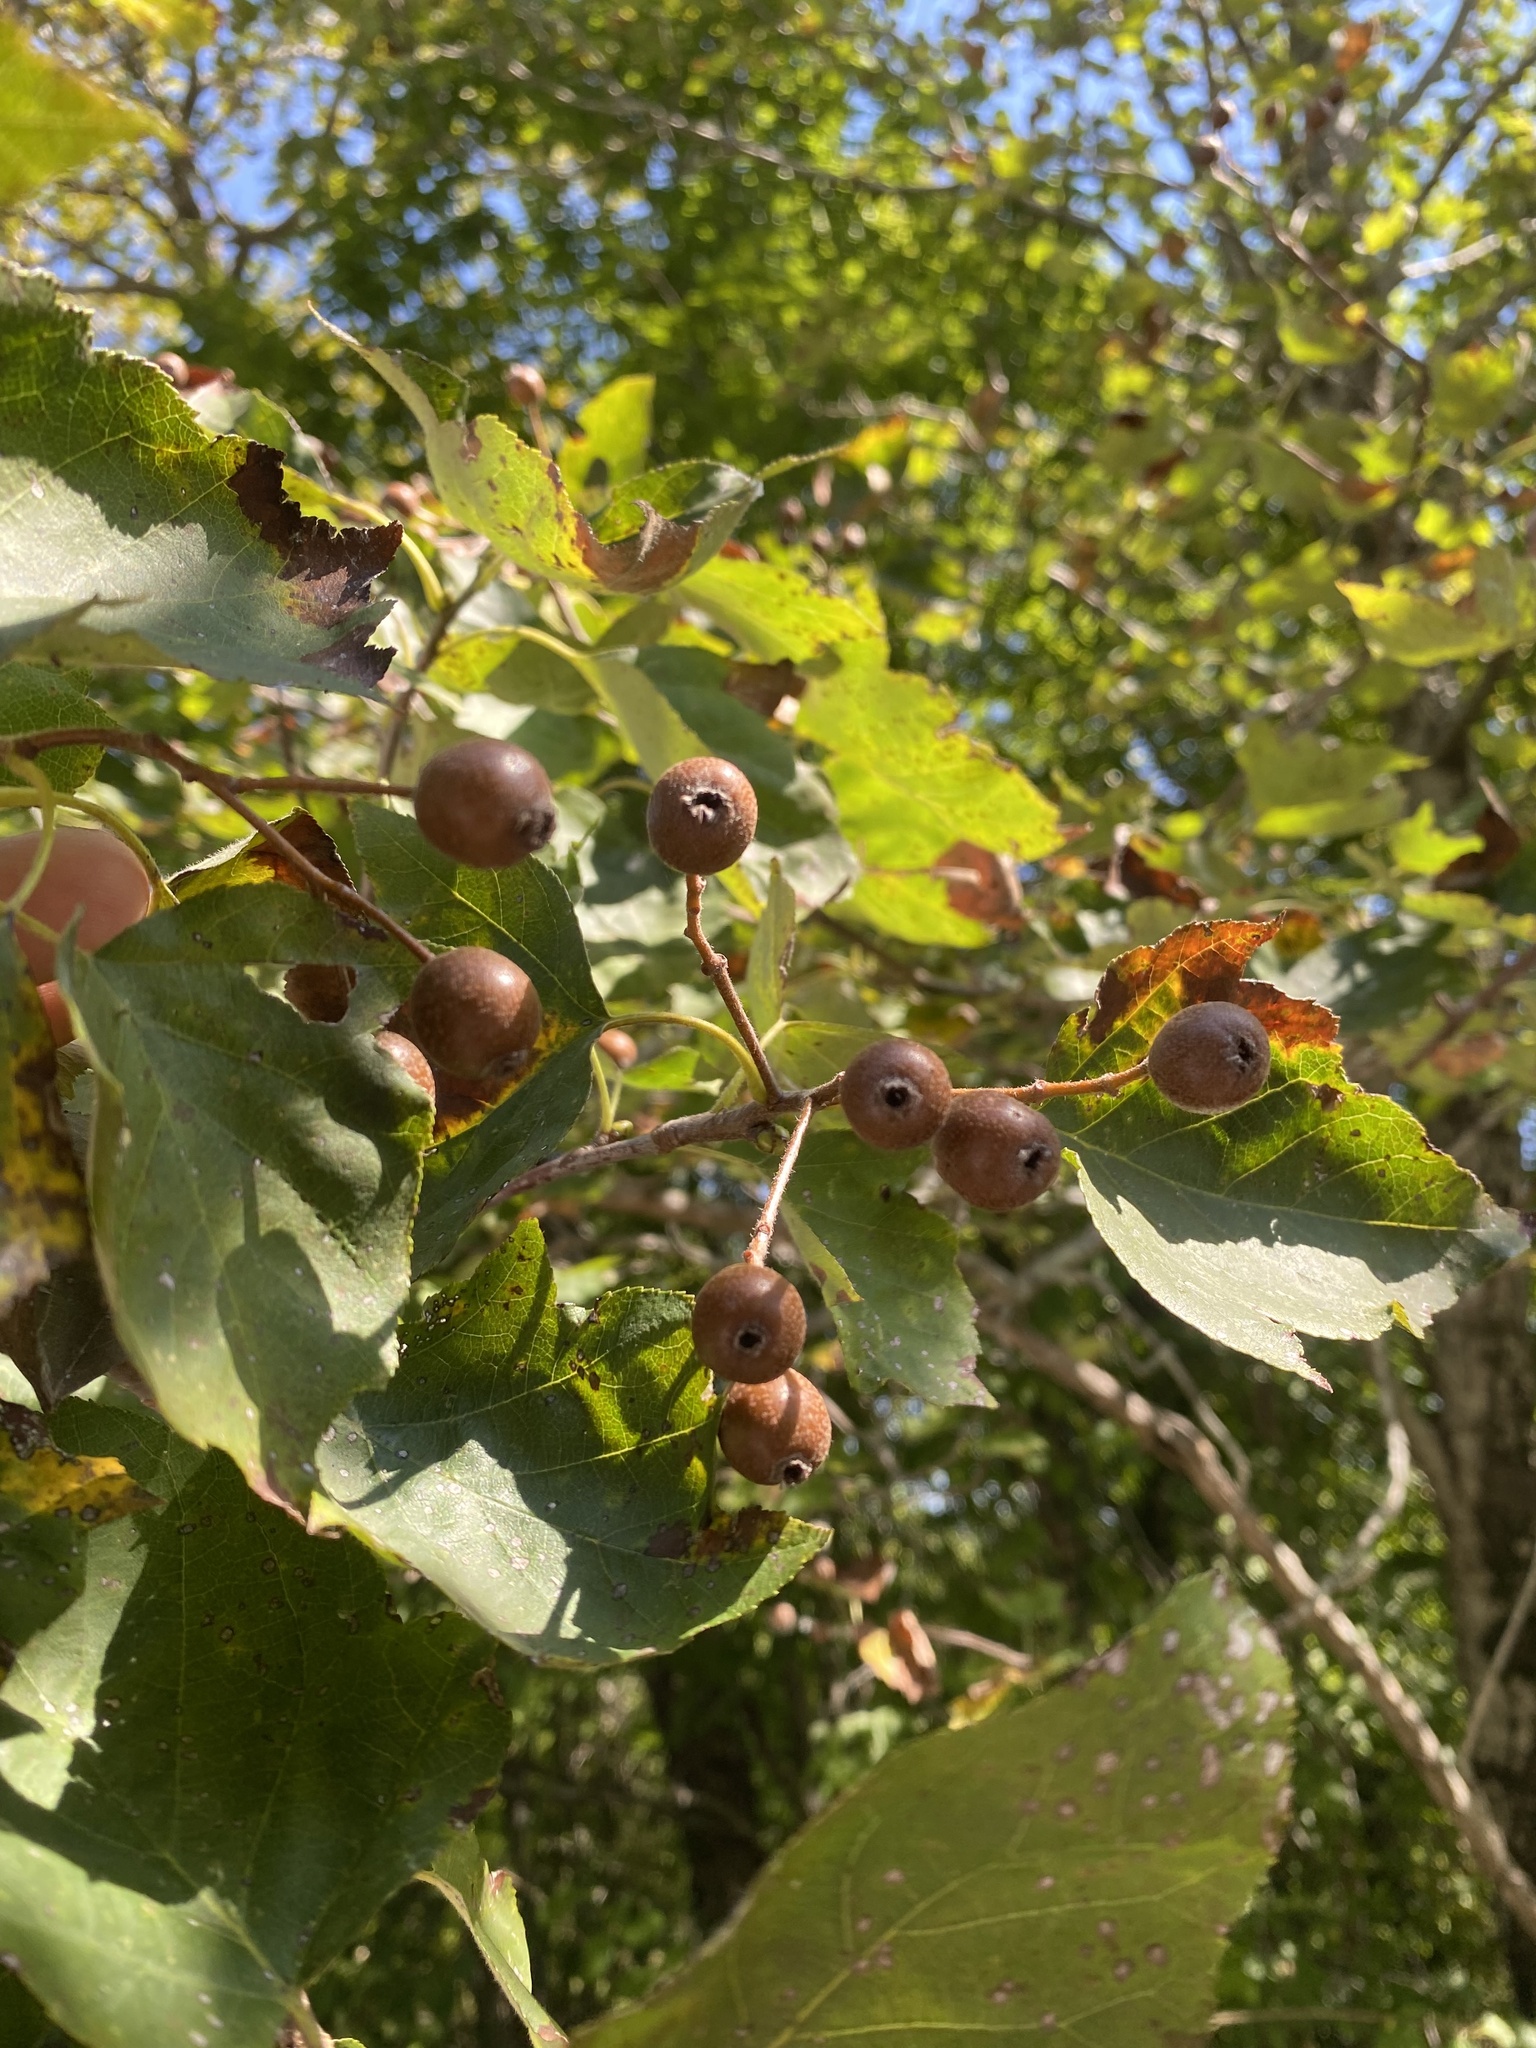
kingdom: Plantae
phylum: Tracheophyta
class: Magnoliopsida
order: Rosales
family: Rosaceae
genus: Torminalis
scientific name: Torminalis glaberrima
